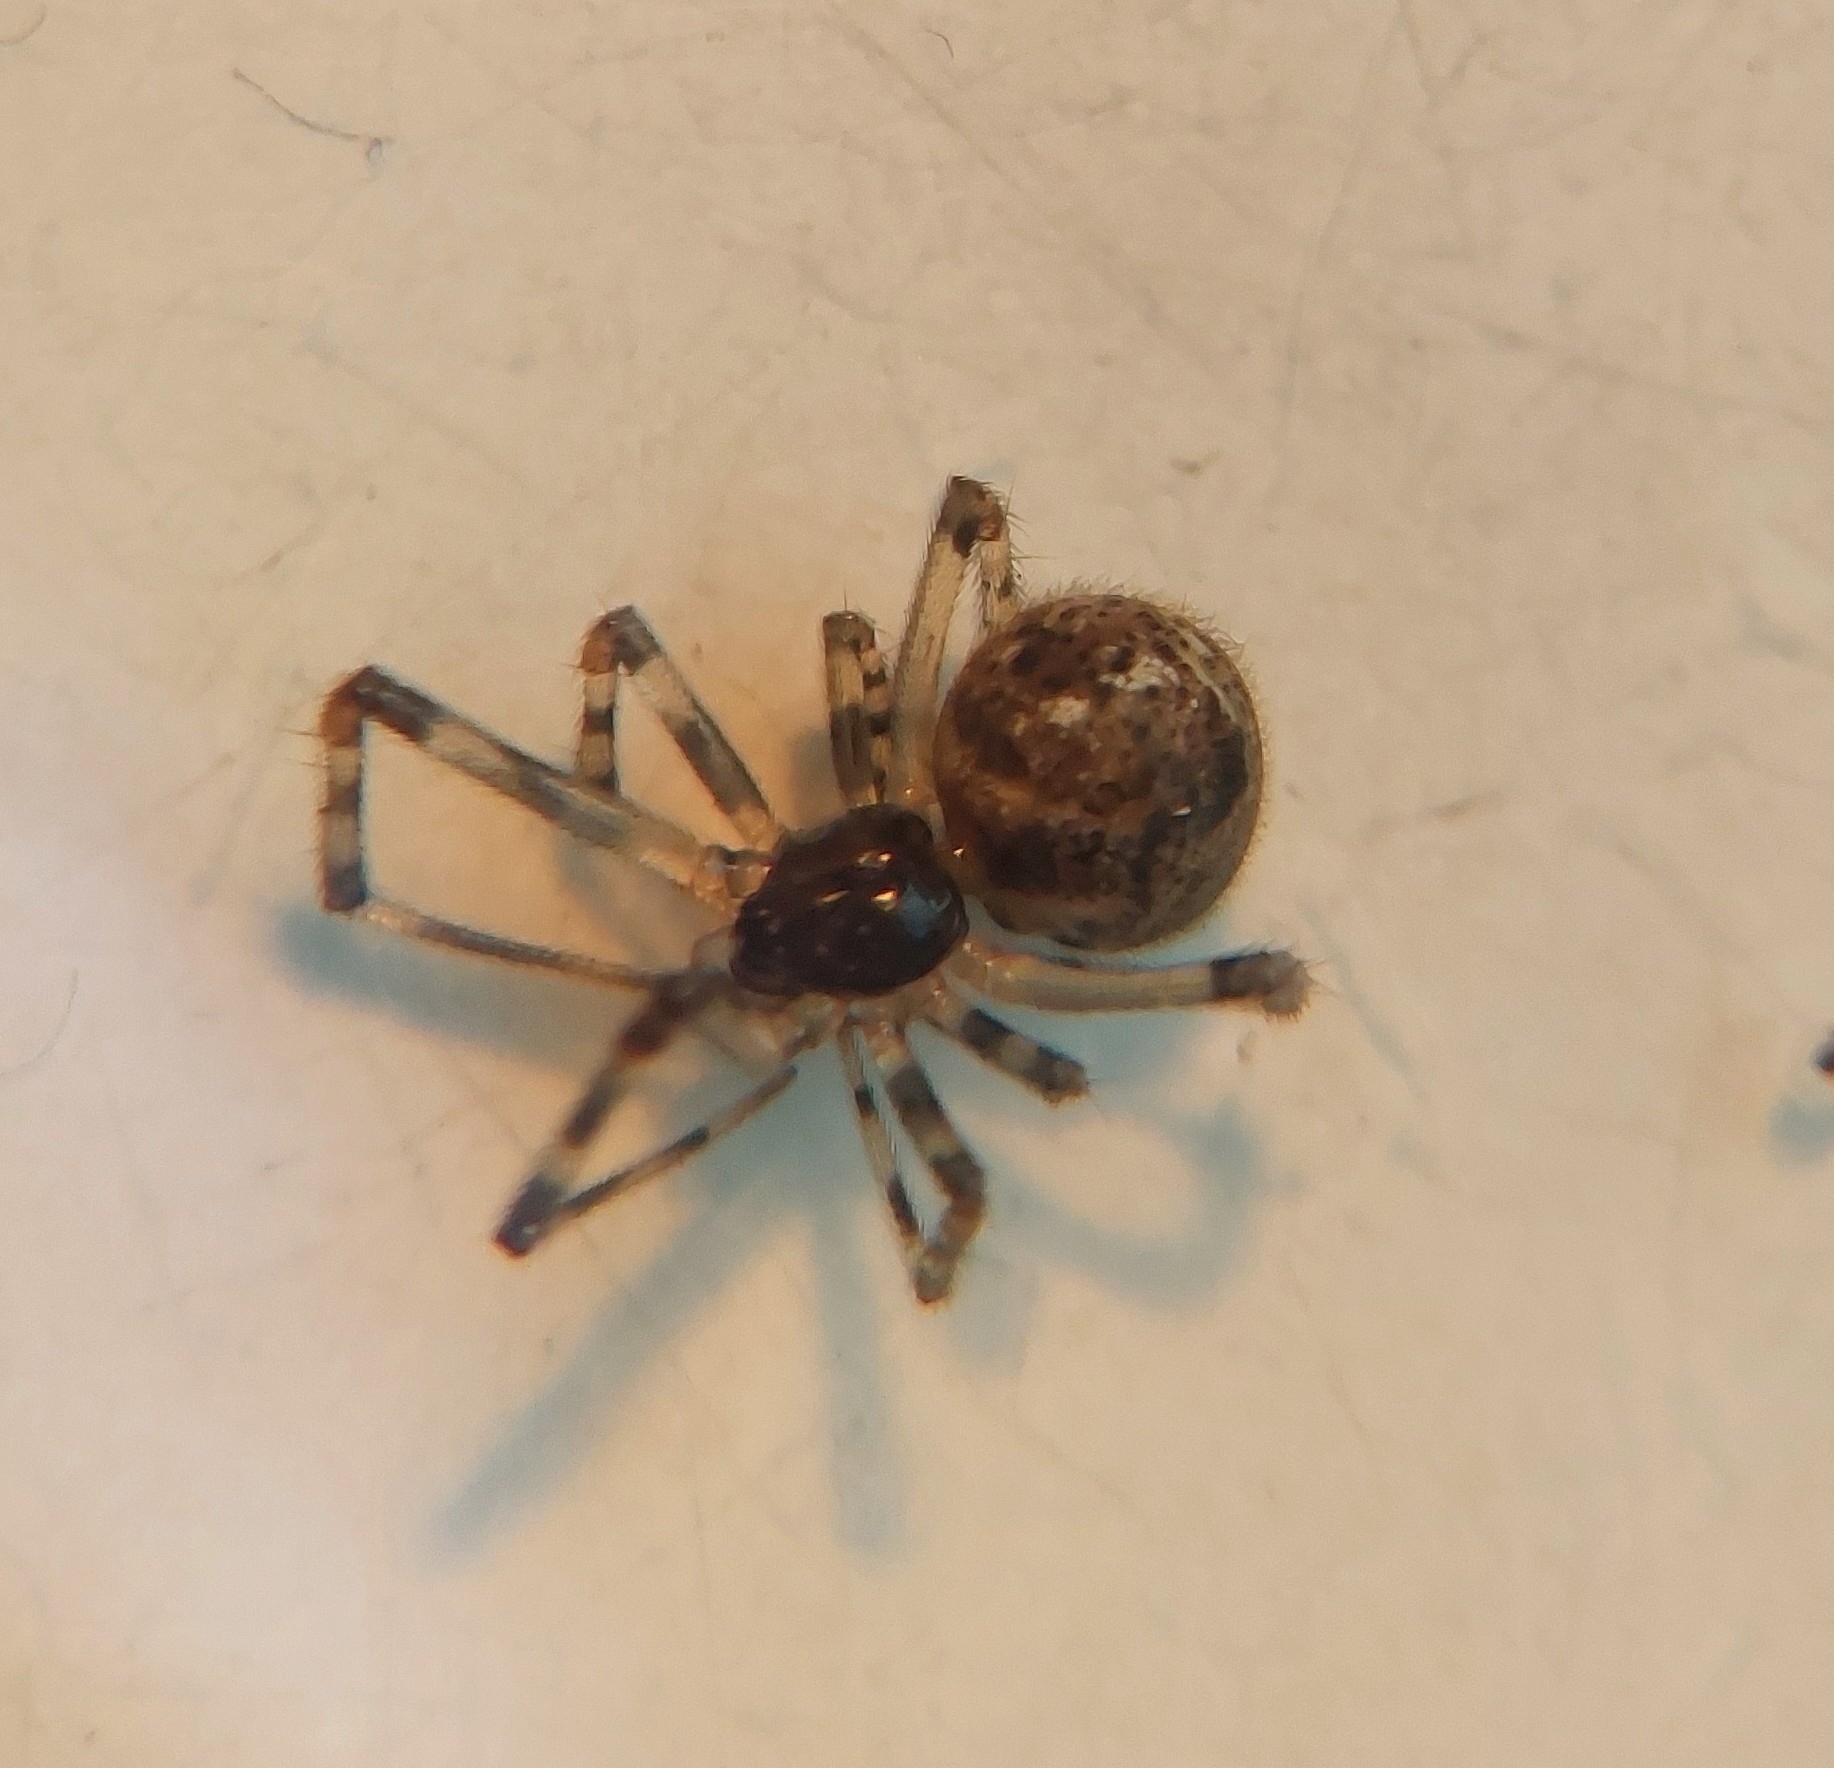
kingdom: Animalia
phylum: Arthropoda
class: Arachnida
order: Araneae
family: Theridiidae
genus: Parasteatoda
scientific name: Parasteatoda tepidariorum
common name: Common house spider
